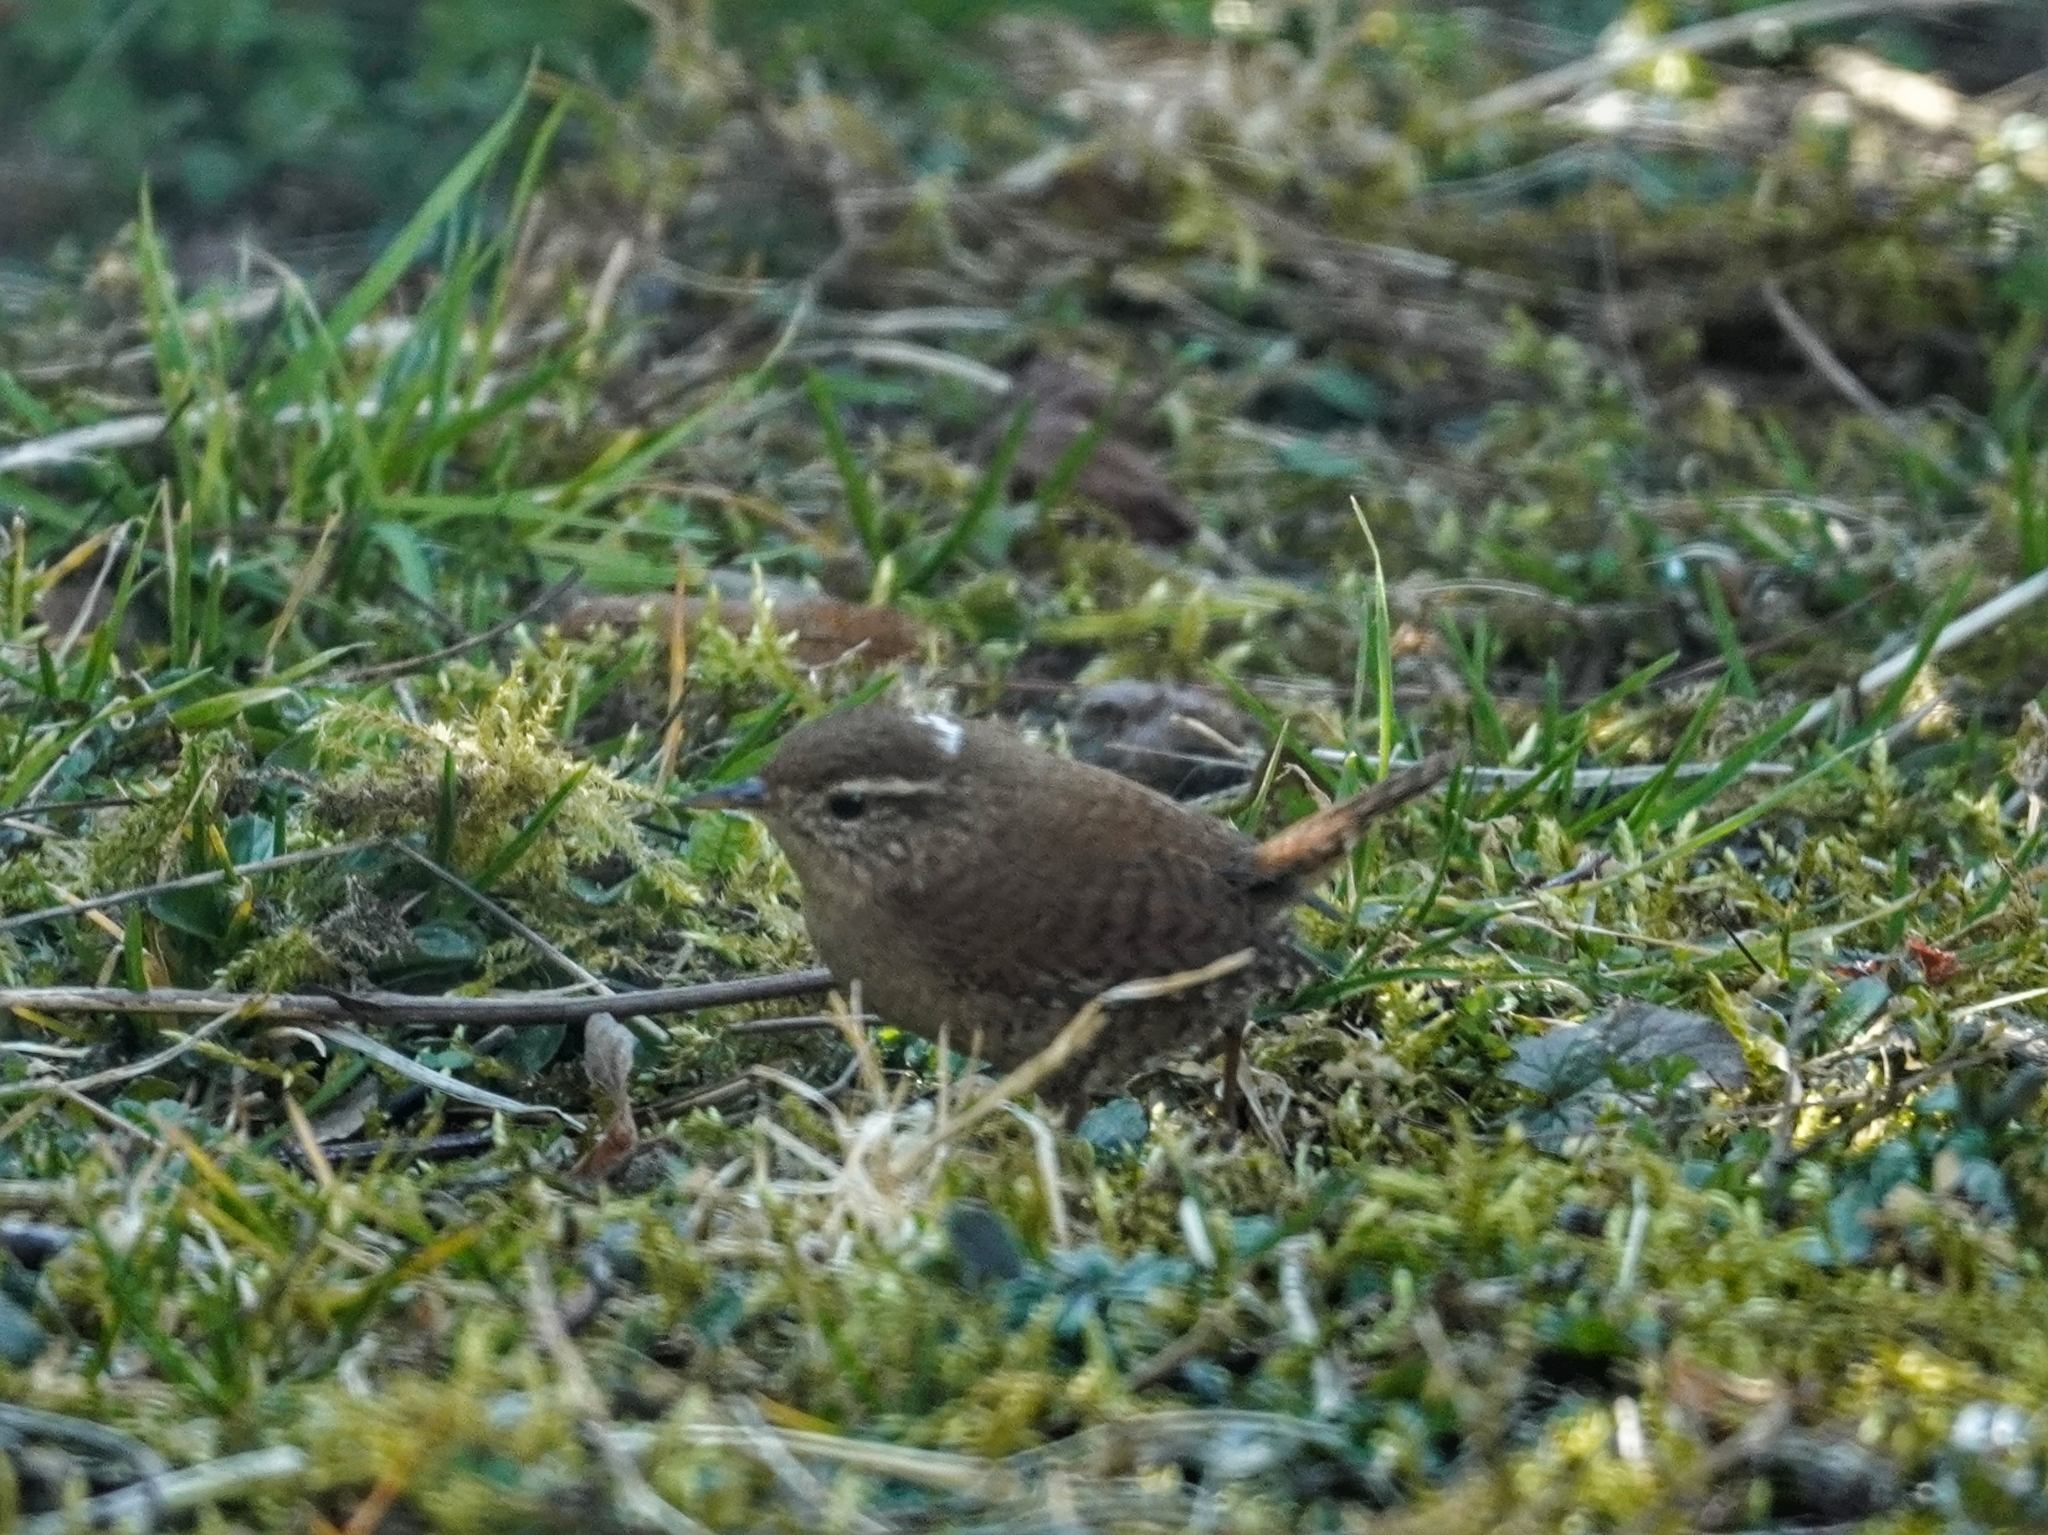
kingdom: Animalia
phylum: Chordata
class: Aves
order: Passeriformes
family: Troglodytidae
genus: Troglodytes
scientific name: Troglodytes troglodytes
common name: Eurasian wren
